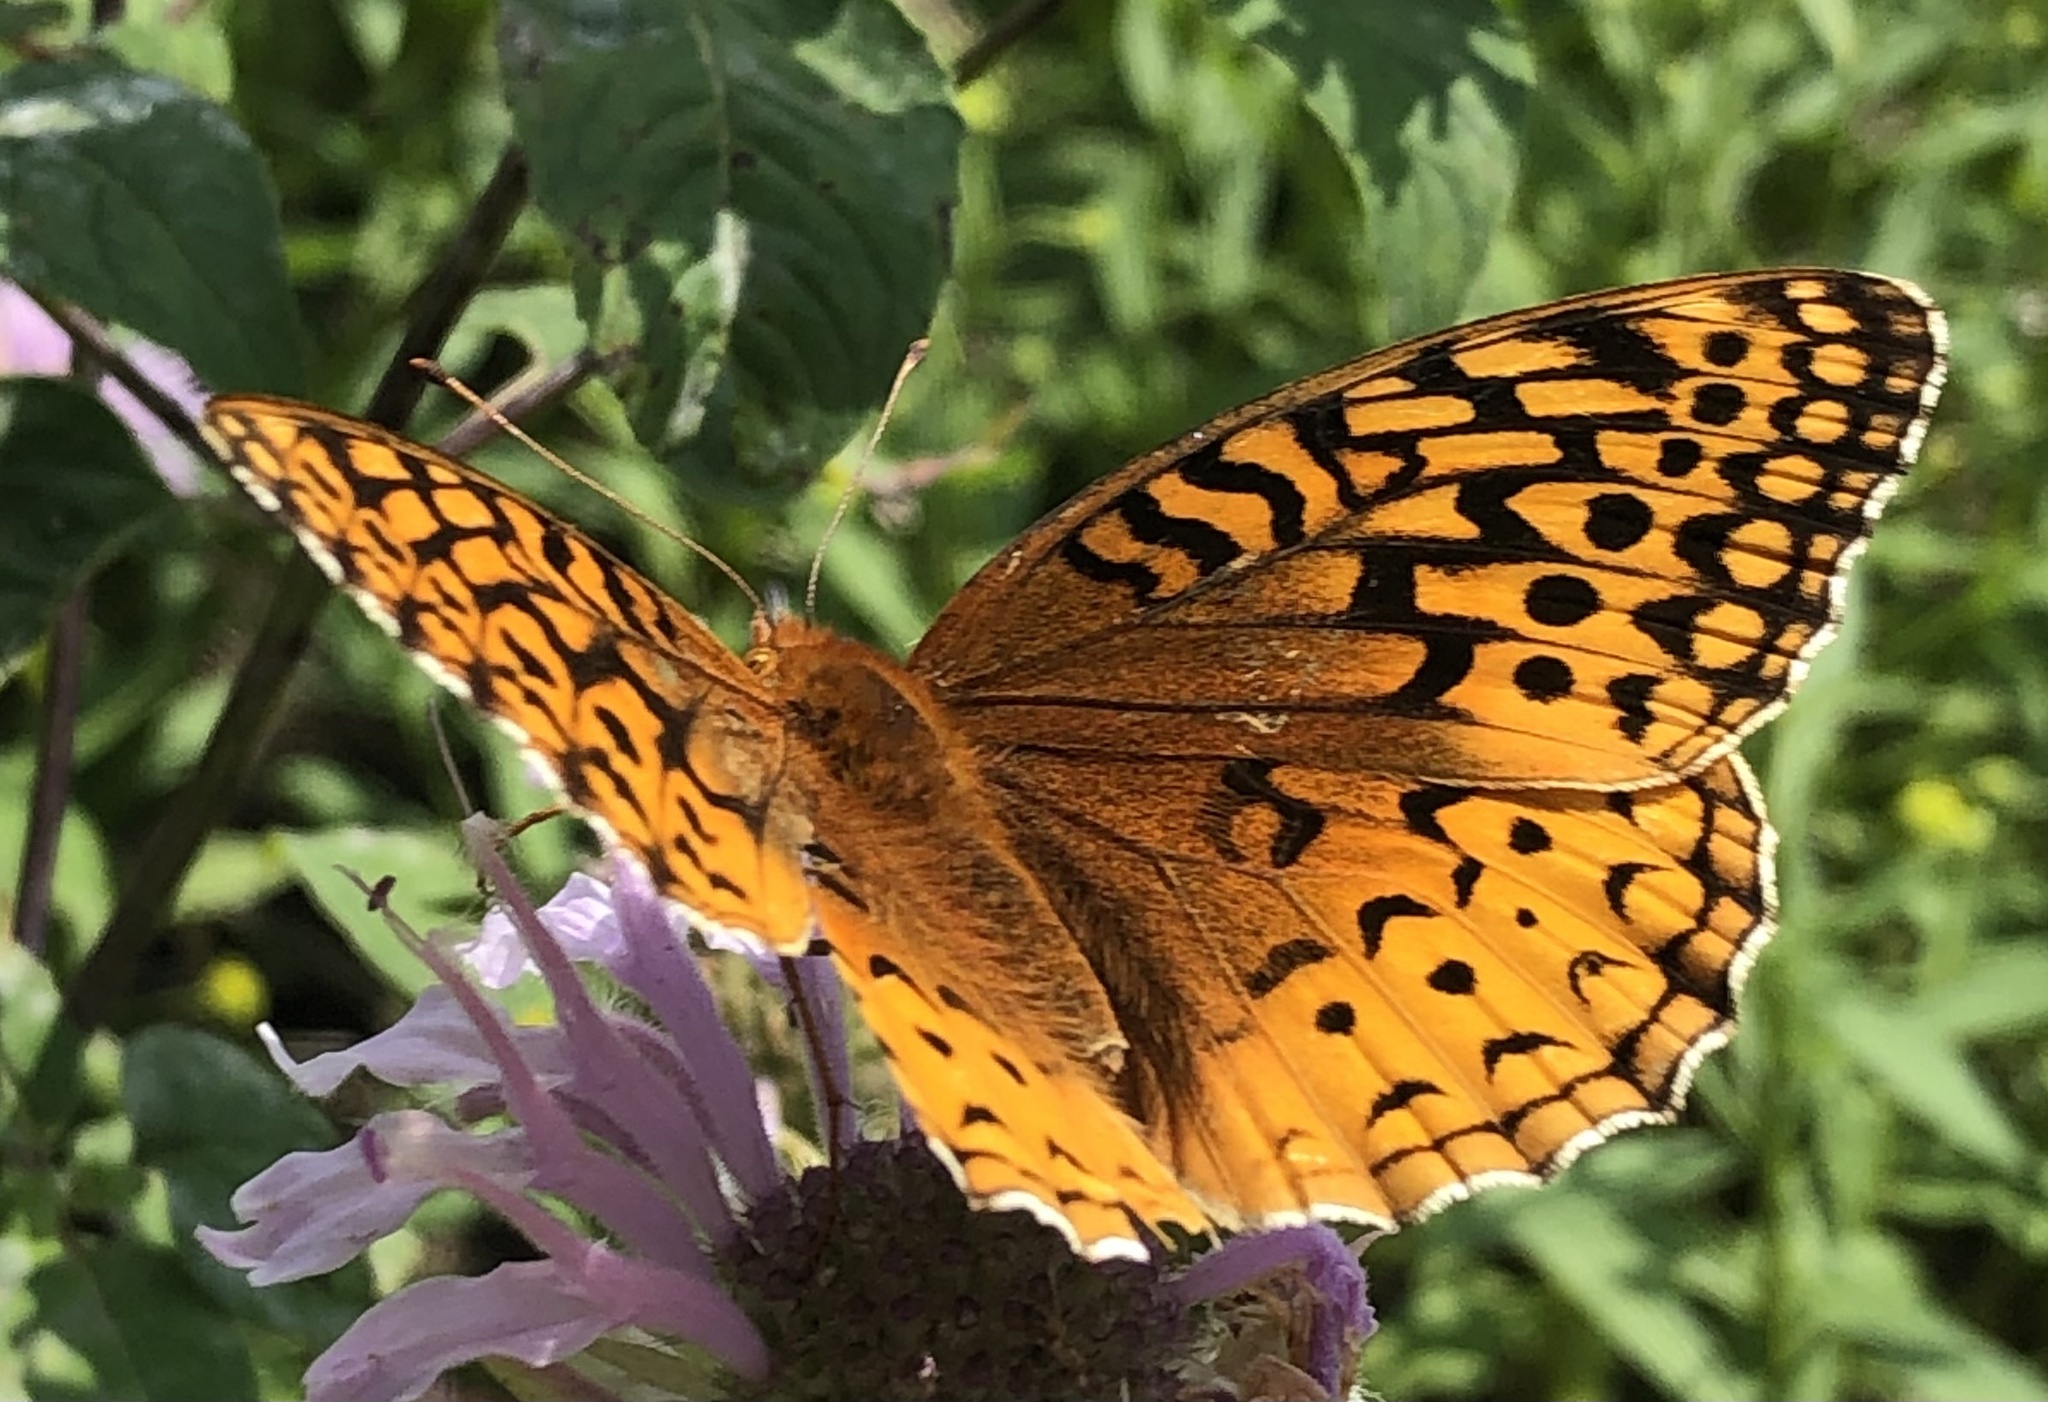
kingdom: Animalia
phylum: Arthropoda
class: Insecta
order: Lepidoptera
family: Nymphalidae
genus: Speyeria
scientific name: Speyeria cybele
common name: Great spangled fritillary
